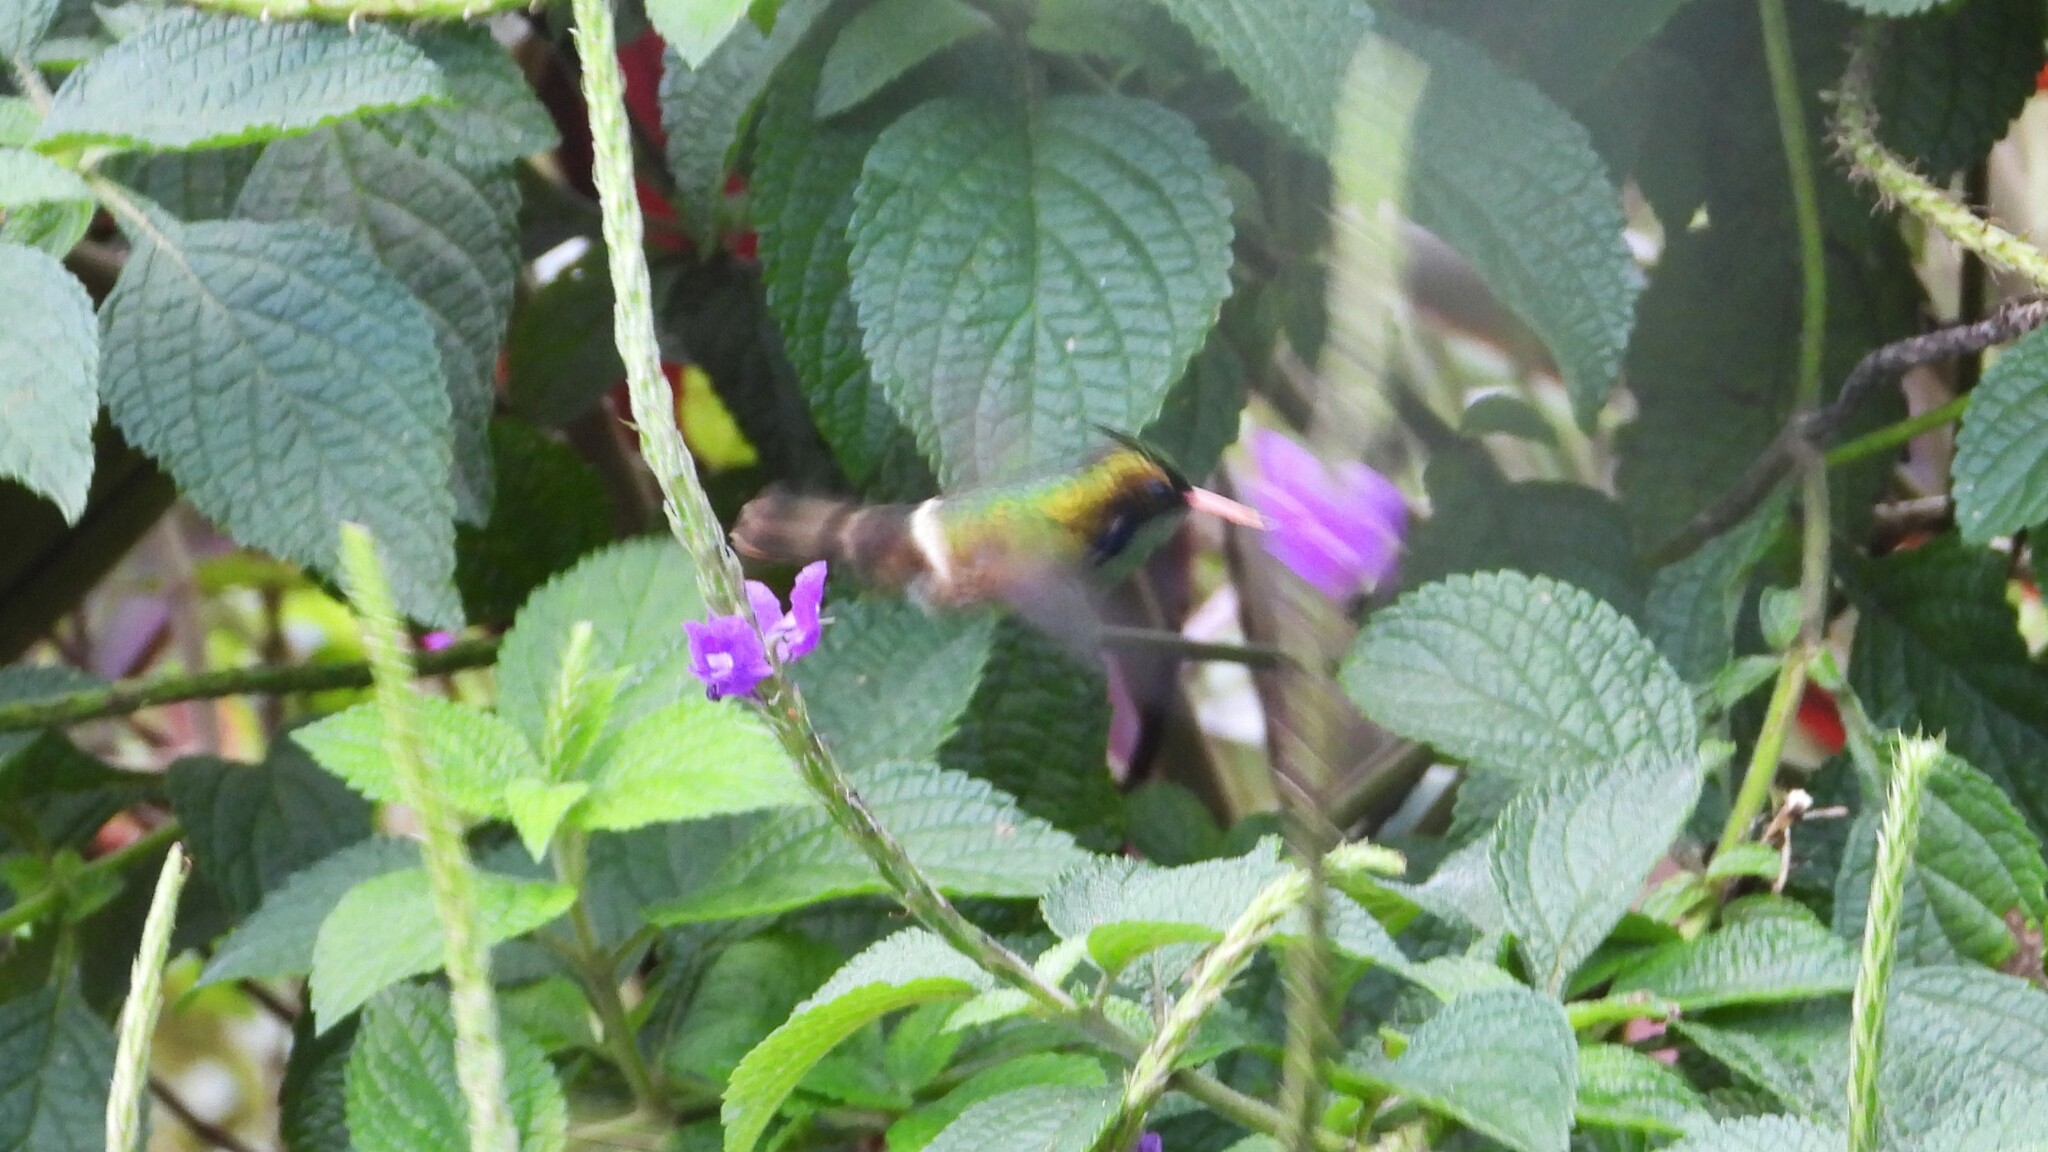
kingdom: Animalia
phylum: Chordata
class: Aves
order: Apodiformes
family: Trochilidae
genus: Lophornis
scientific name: Lophornis helenae
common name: Black-crested coquette
